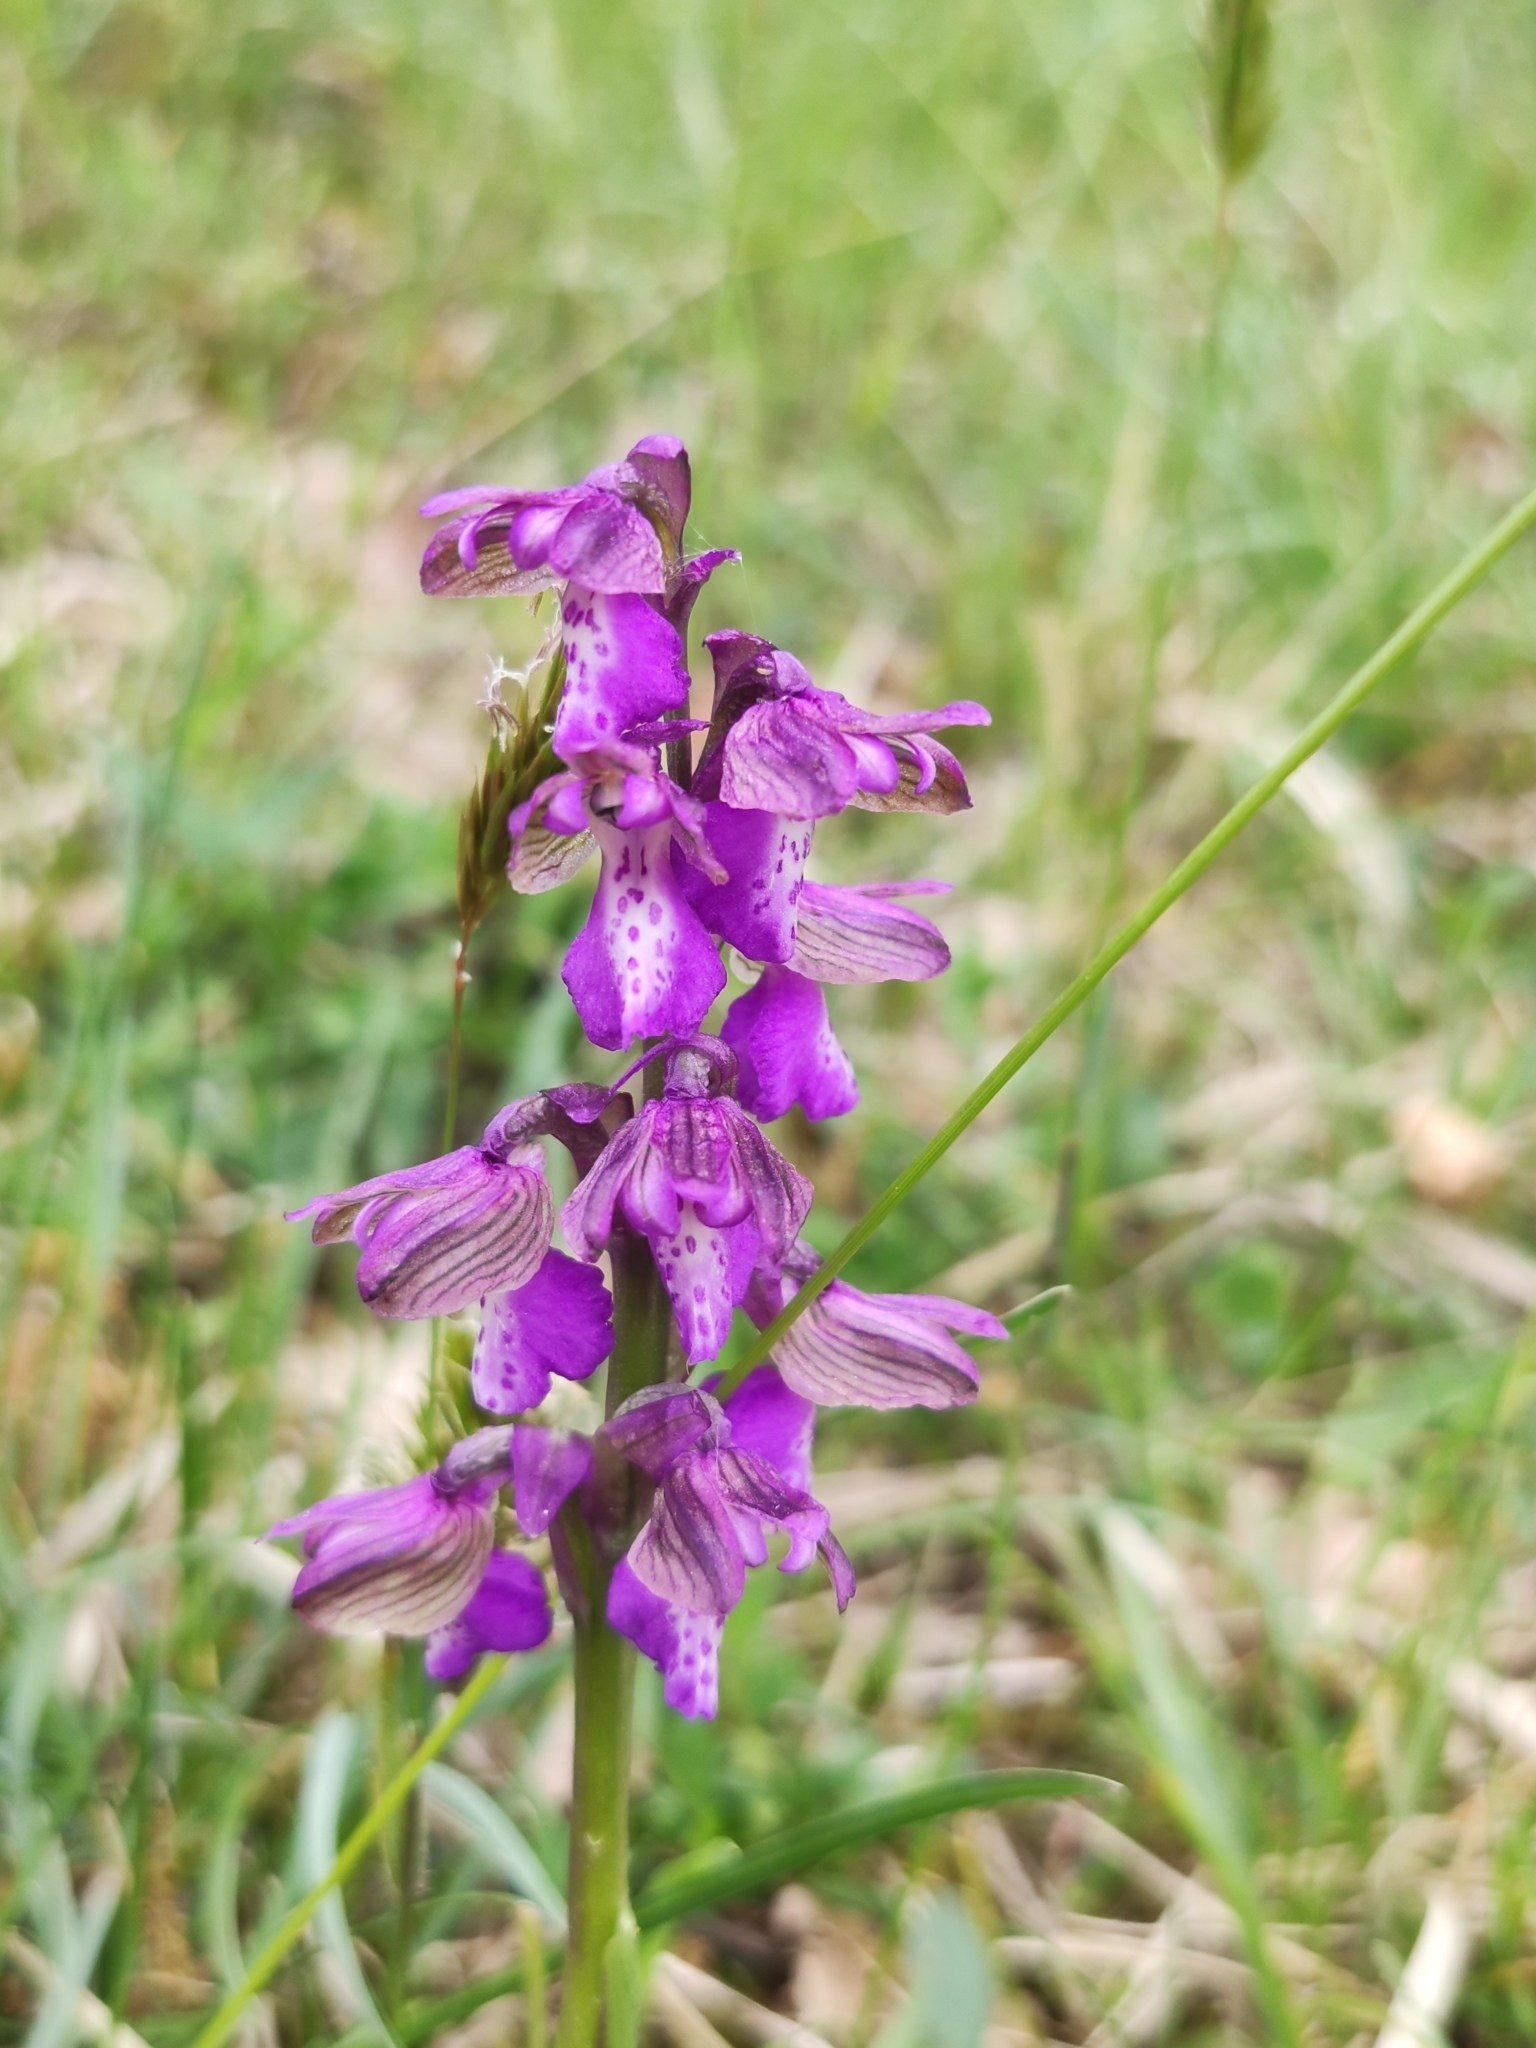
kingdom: Plantae
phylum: Tracheophyta
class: Liliopsida
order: Asparagales
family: Orchidaceae
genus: Anacamptis
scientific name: Anacamptis morio
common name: Green-winged orchid
